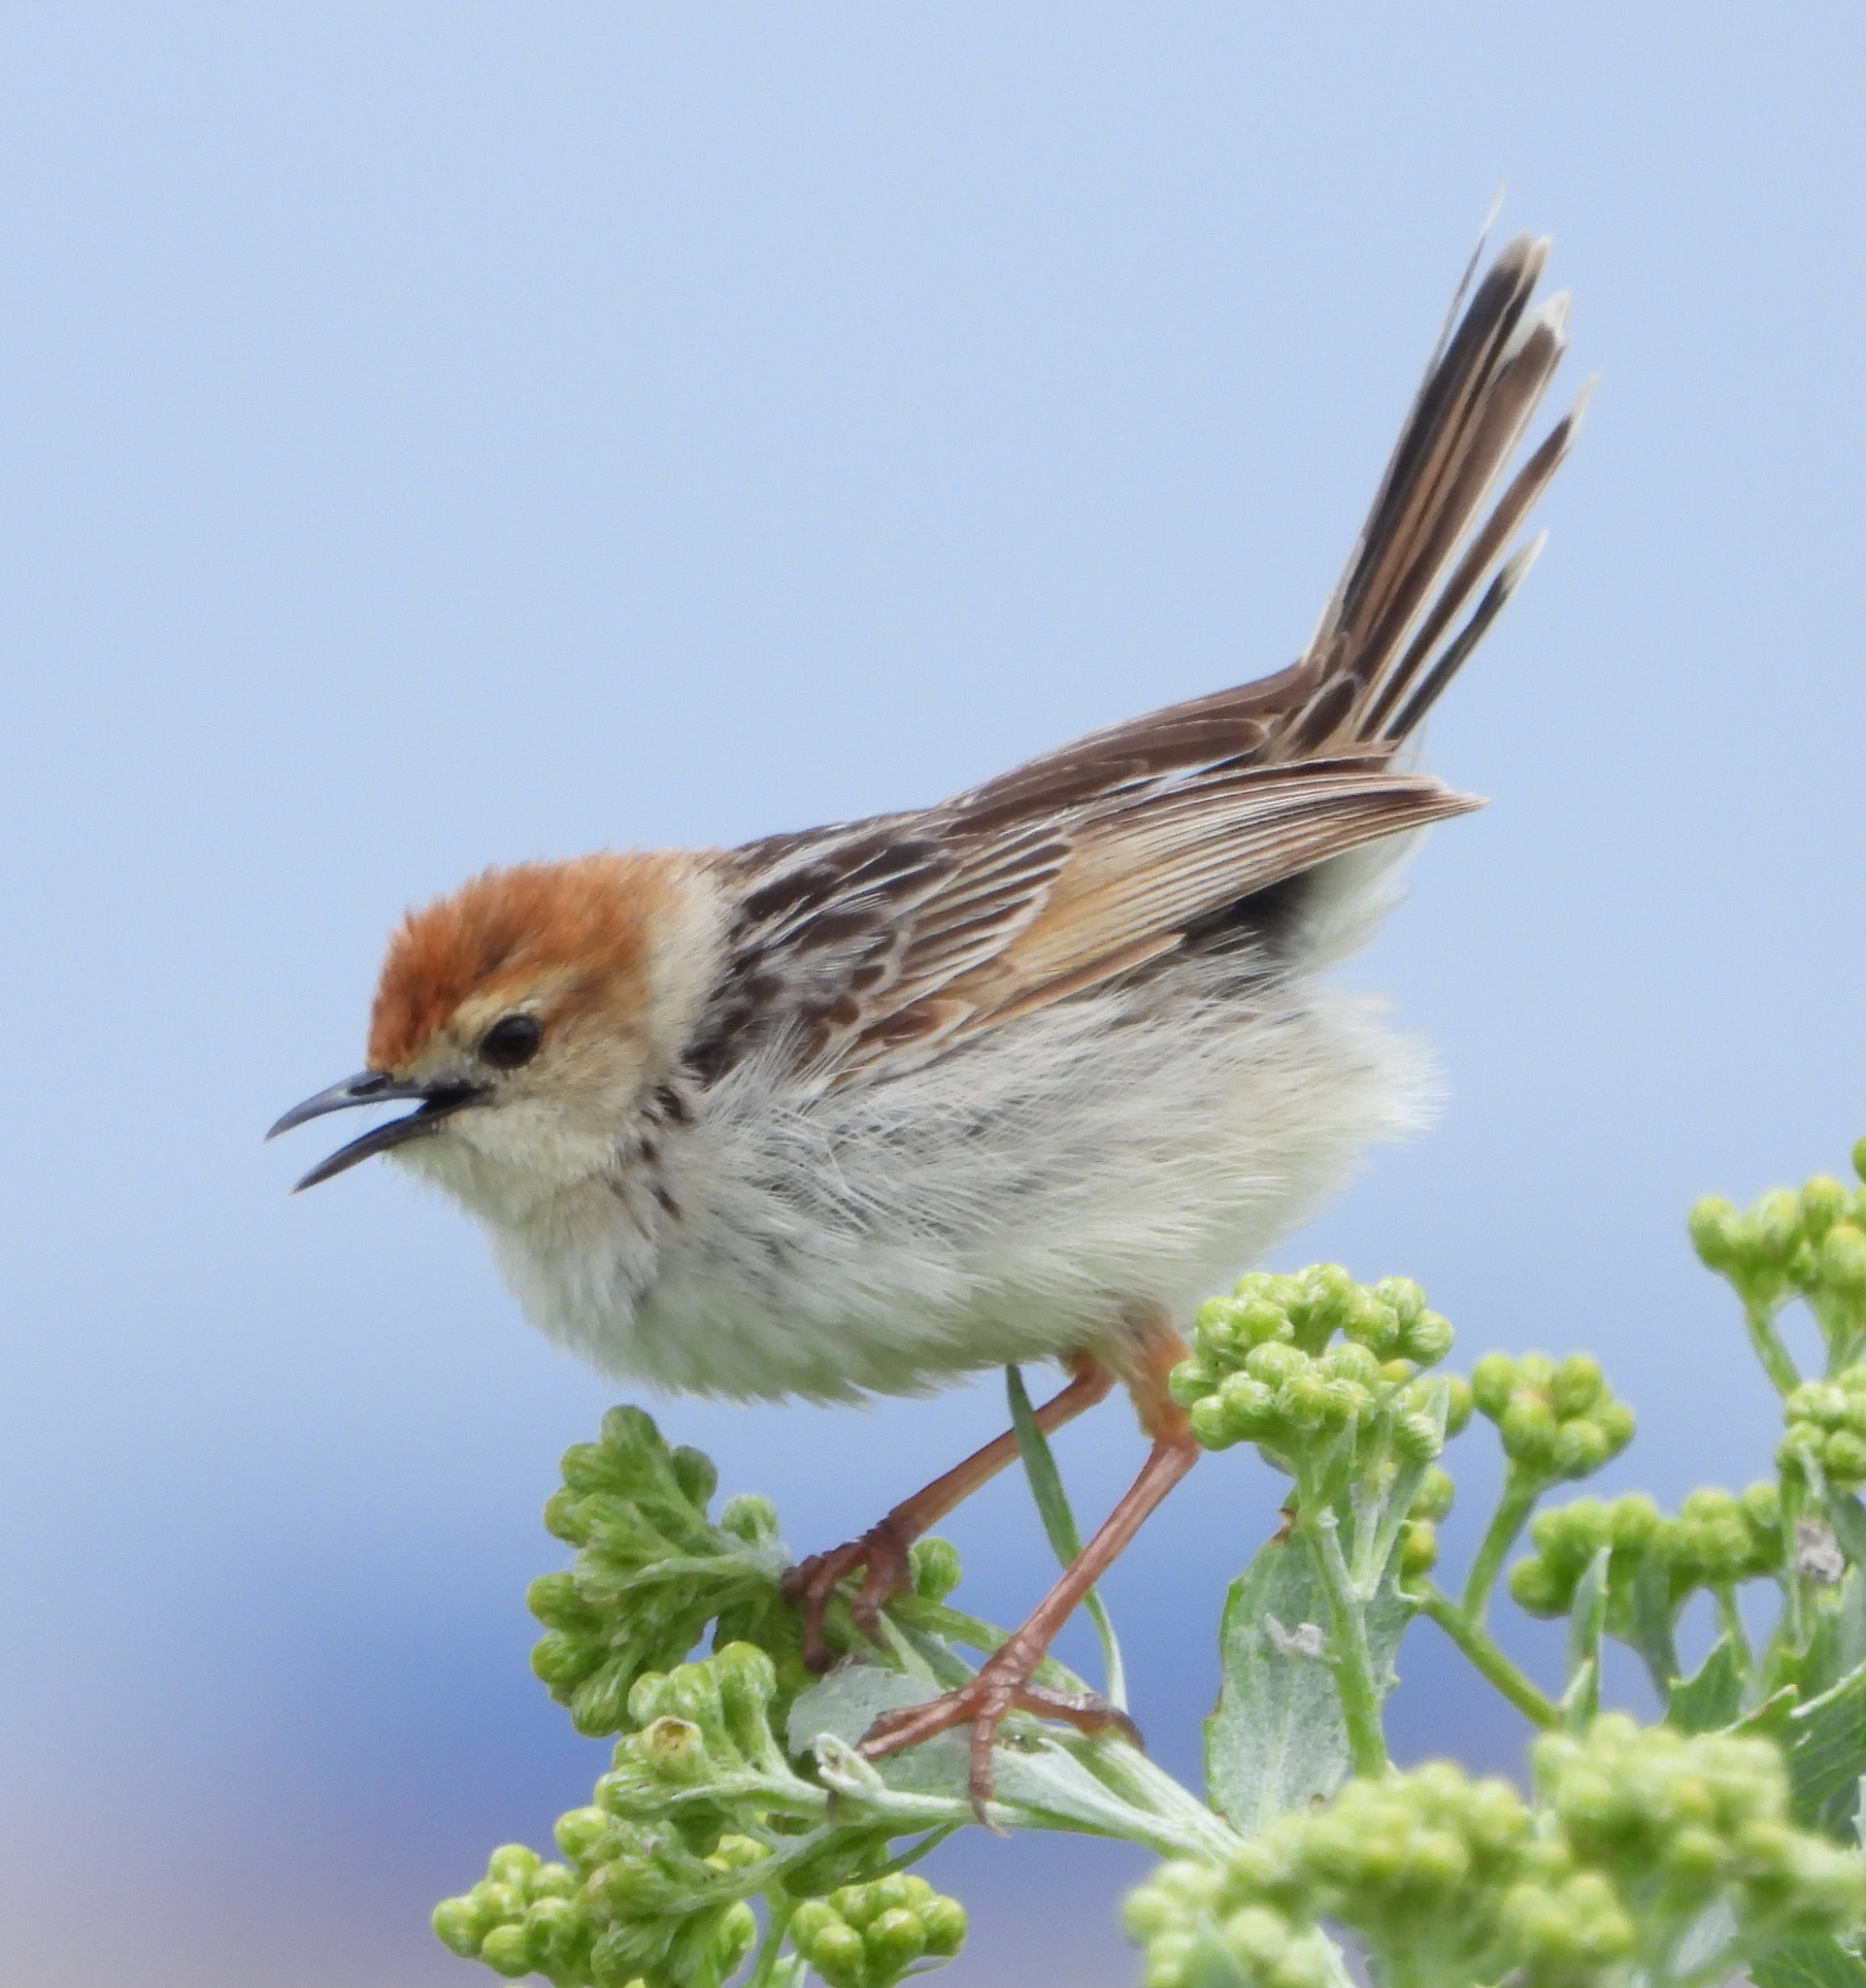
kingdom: Animalia
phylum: Chordata
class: Aves
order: Passeriformes
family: Cisticolidae
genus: Cisticola
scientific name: Cisticola tinniens
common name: Levaillant's cisticola
